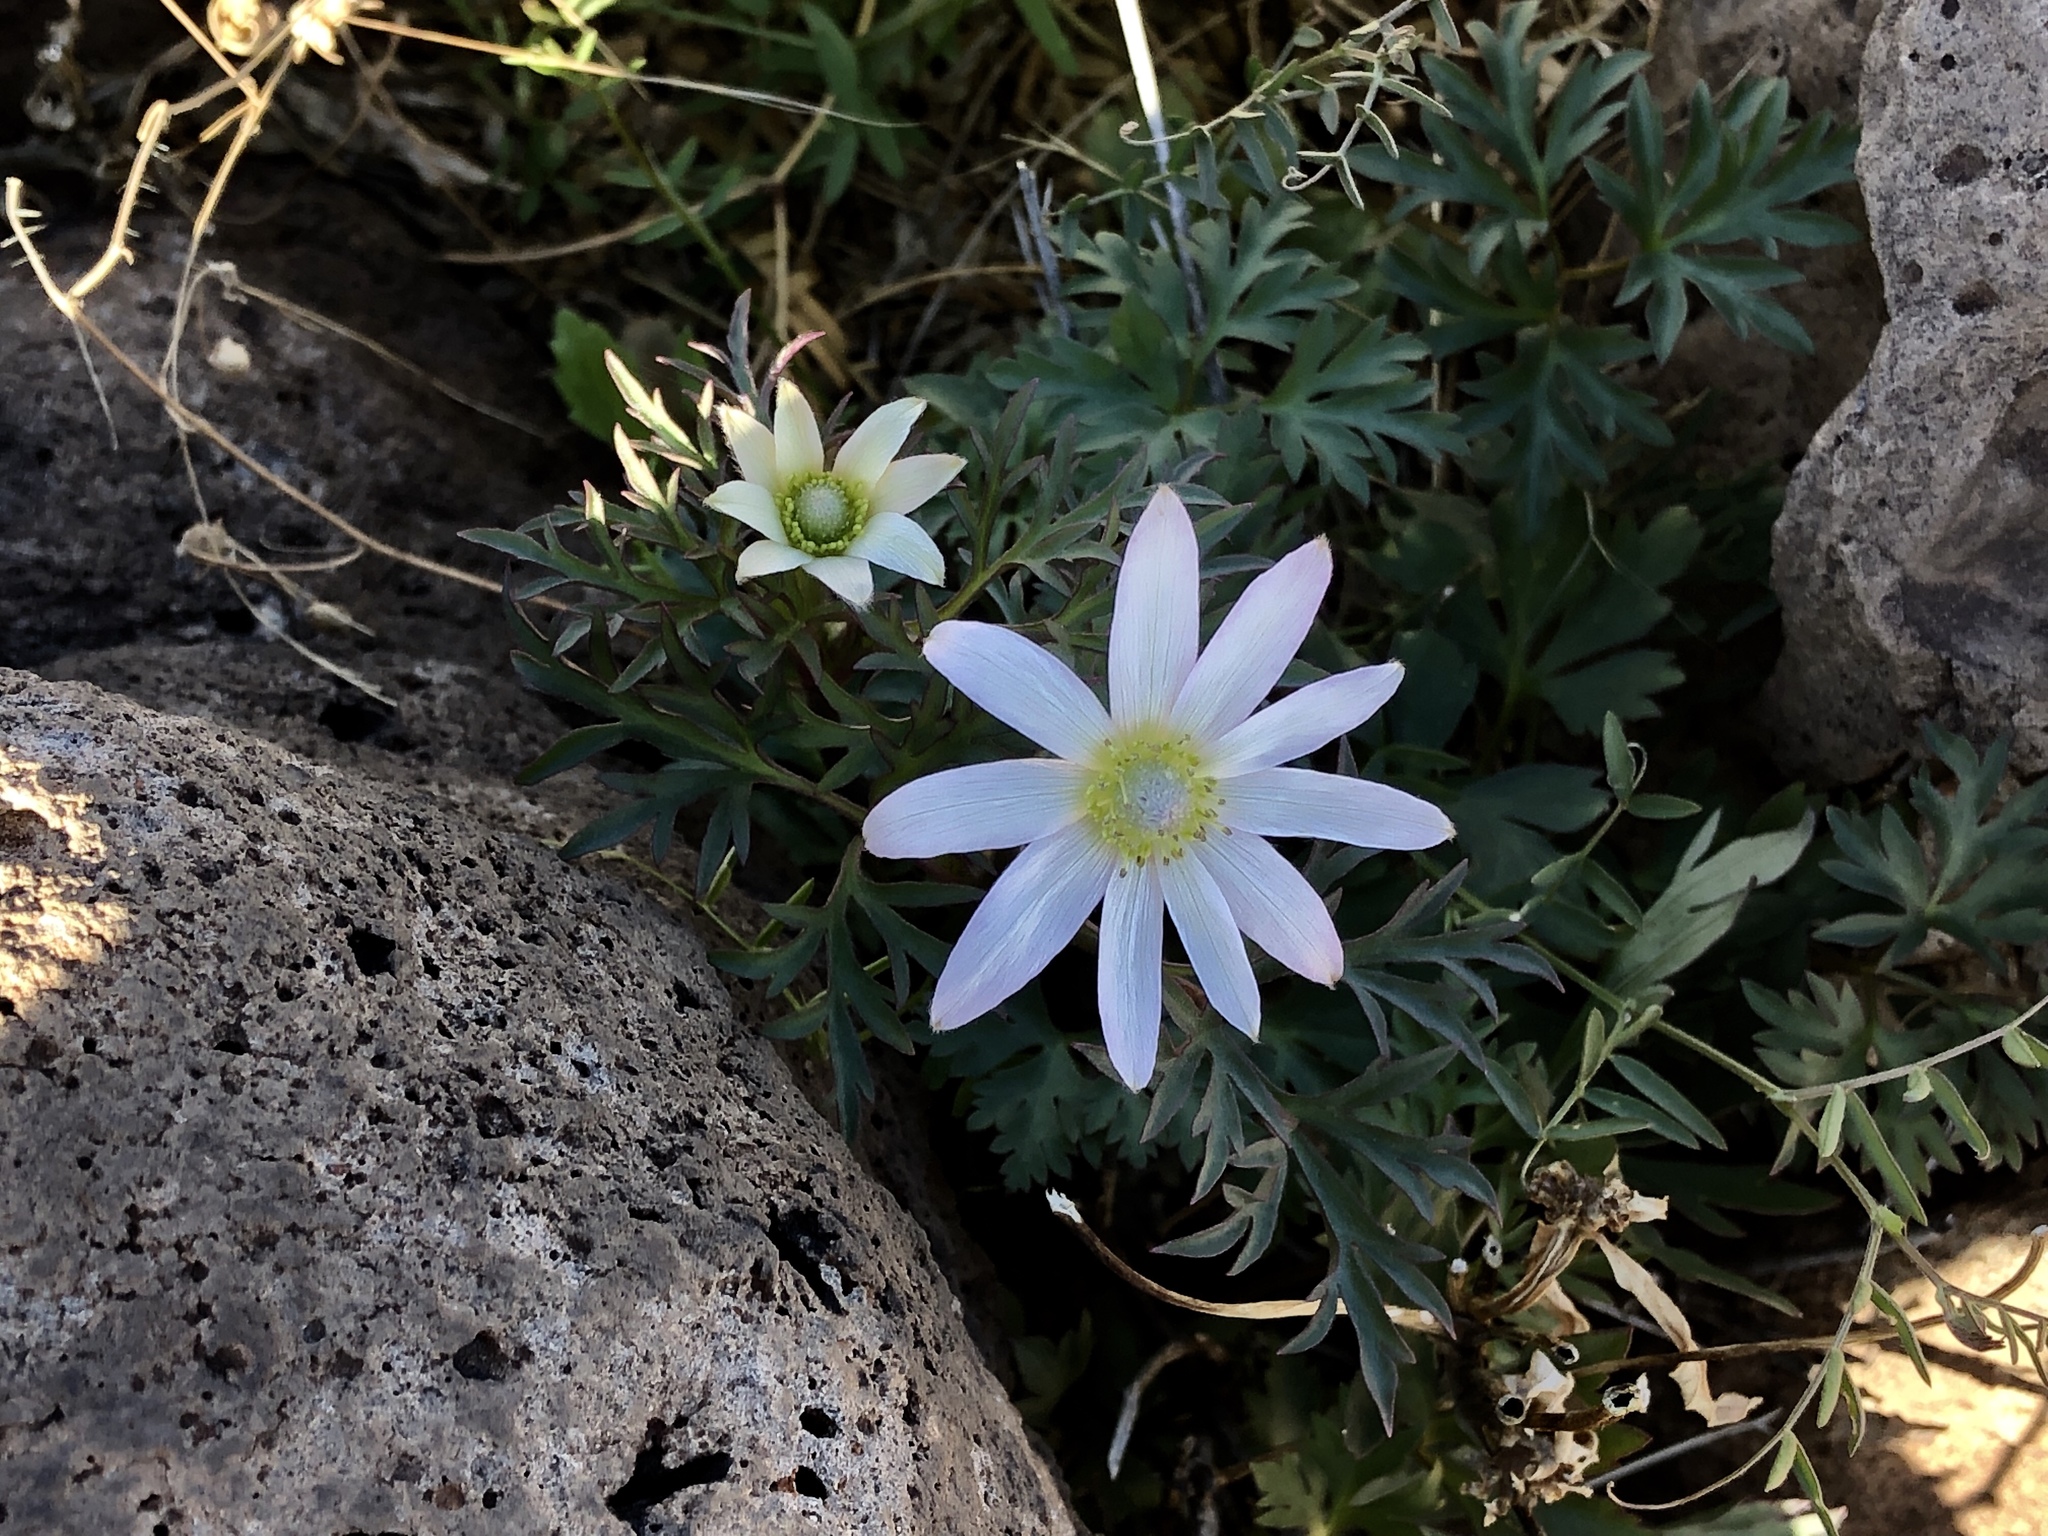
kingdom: Plantae
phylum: Tracheophyta
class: Magnoliopsida
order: Ranunculales
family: Ranunculaceae
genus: Anemone
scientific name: Anemone tuberosa
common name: Desert anemone
